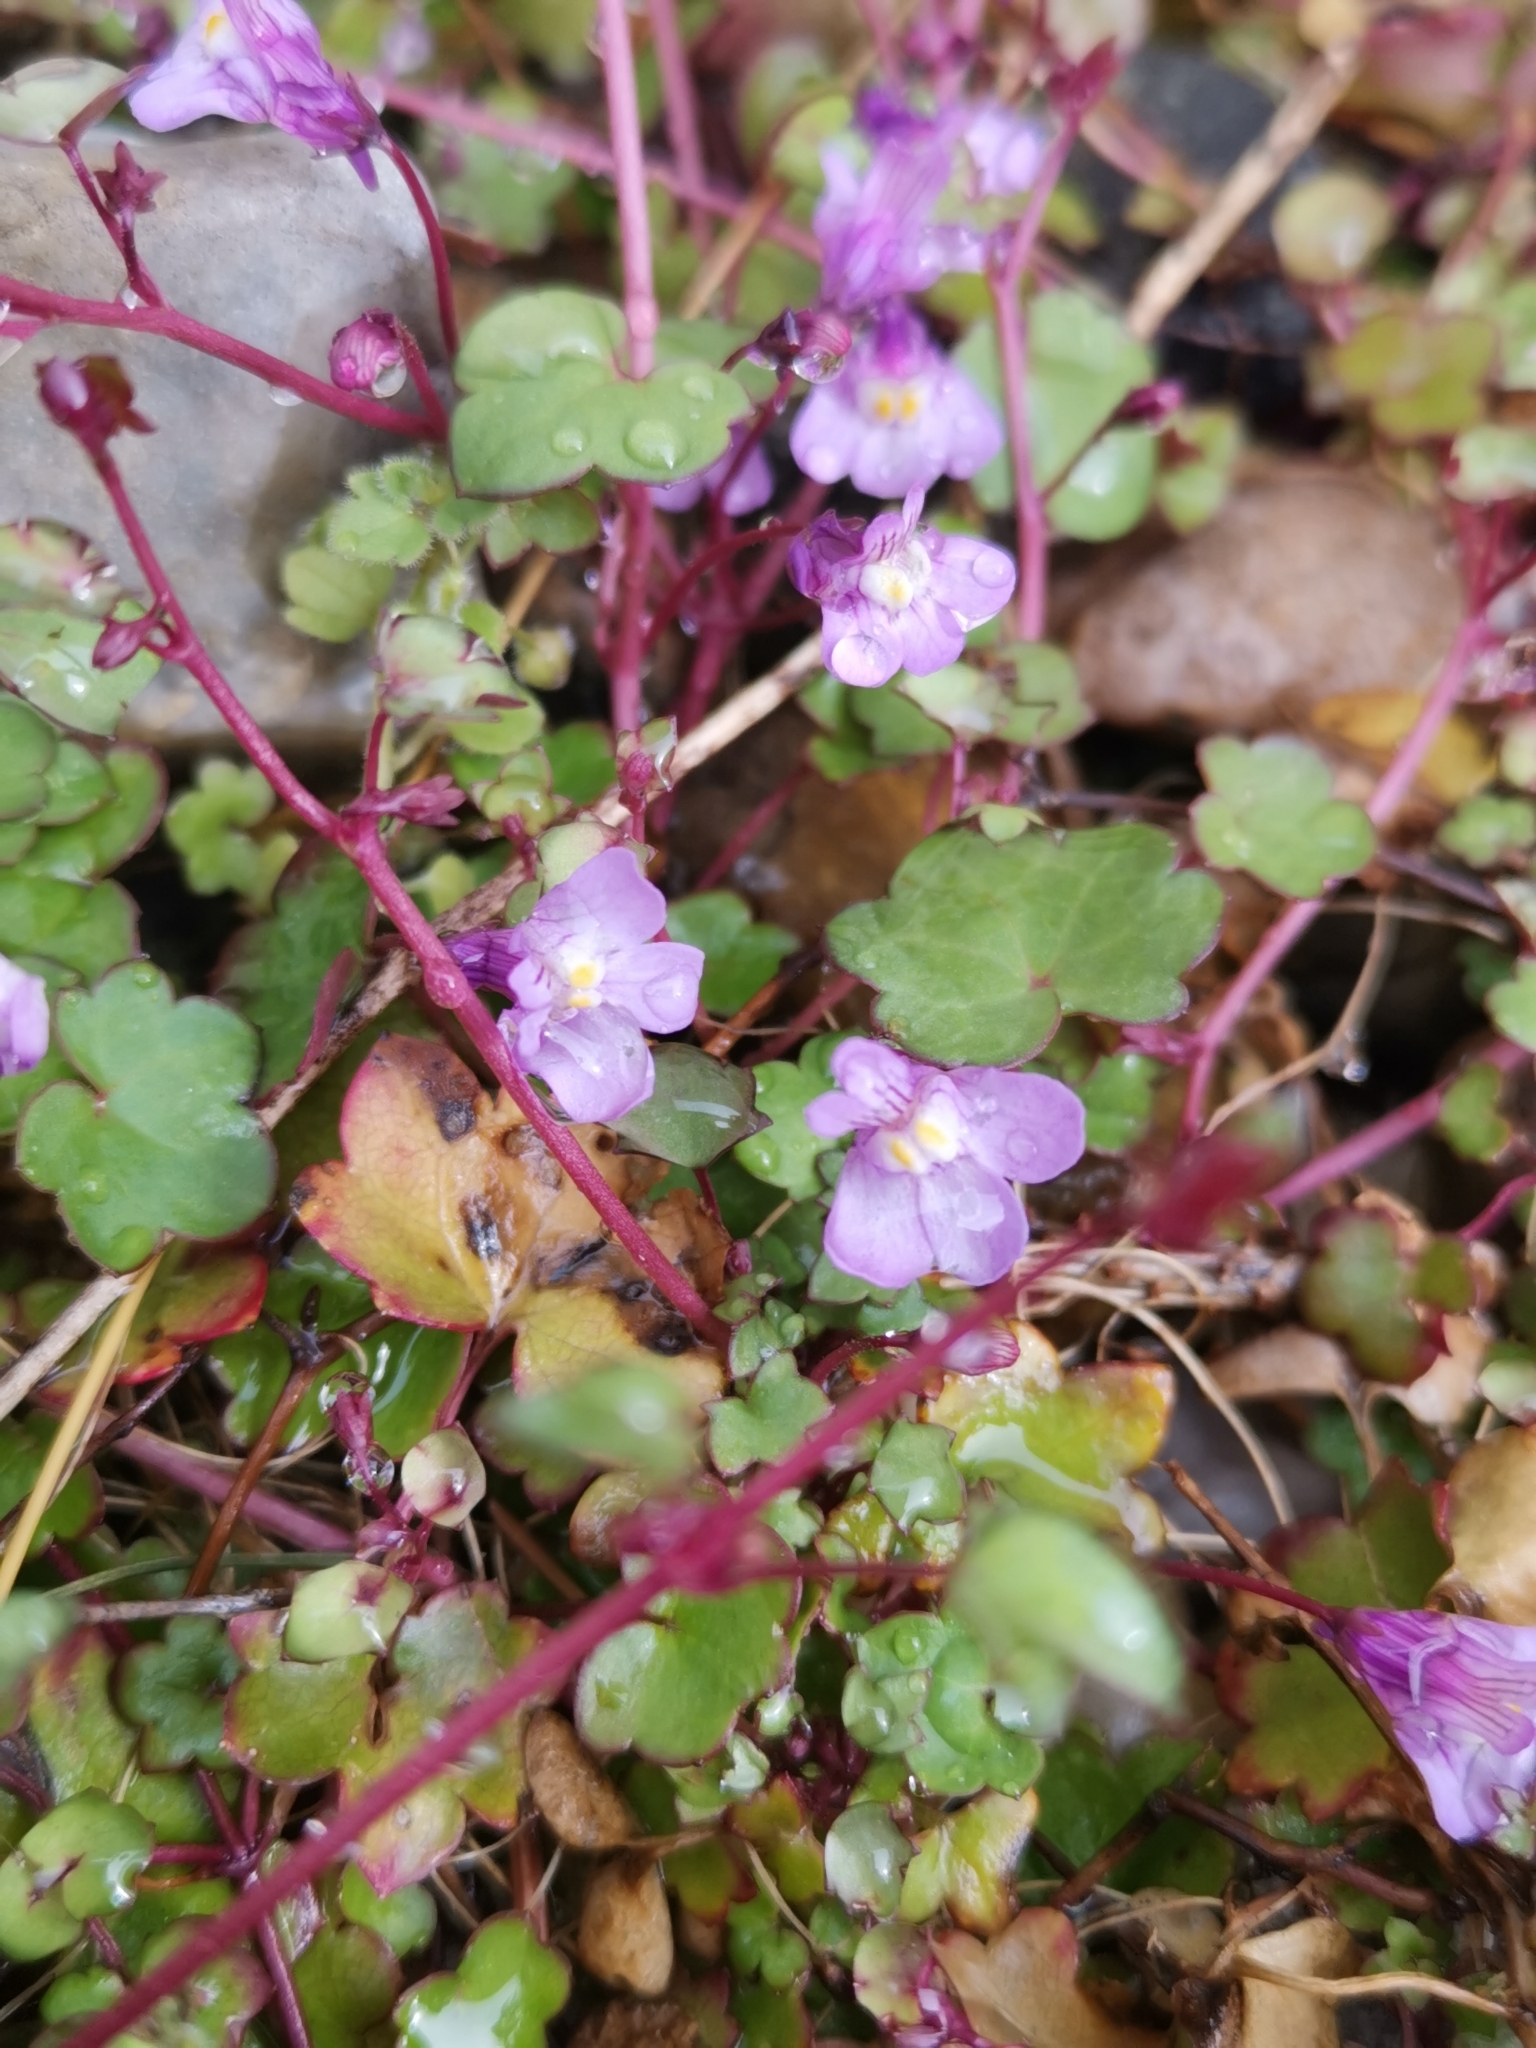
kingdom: Plantae
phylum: Tracheophyta
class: Magnoliopsida
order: Lamiales
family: Plantaginaceae
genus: Cymbalaria
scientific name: Cymbalaria muralis
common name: Ivy-leaved toadflax
